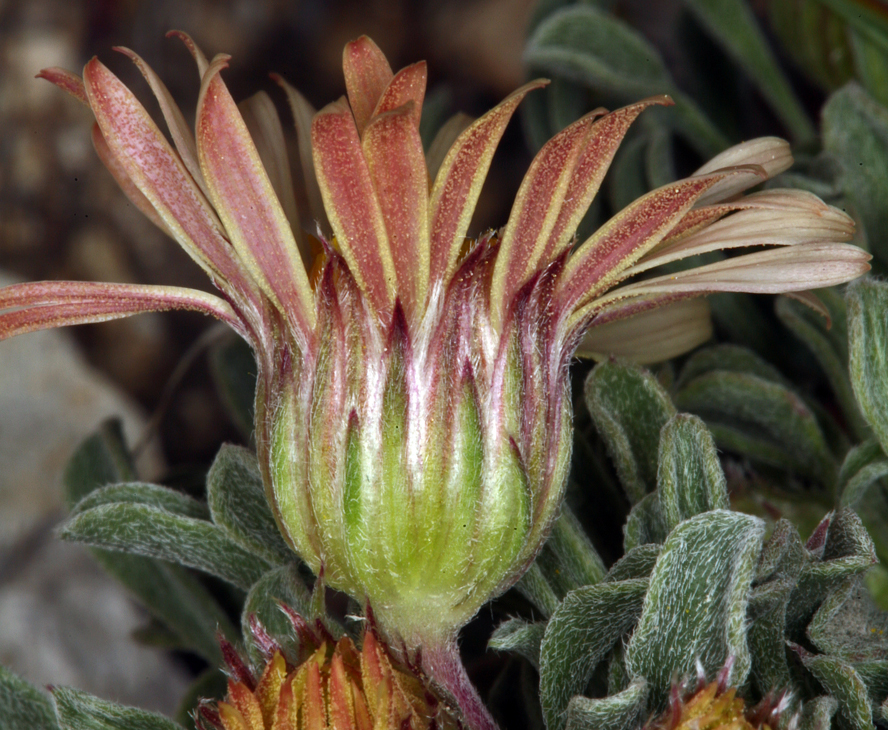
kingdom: Plantae
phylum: Tracheophyta
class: Magnoliopsida
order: Asterales
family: Asteraceae
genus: Townsendia
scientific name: Townsendia scapigera
